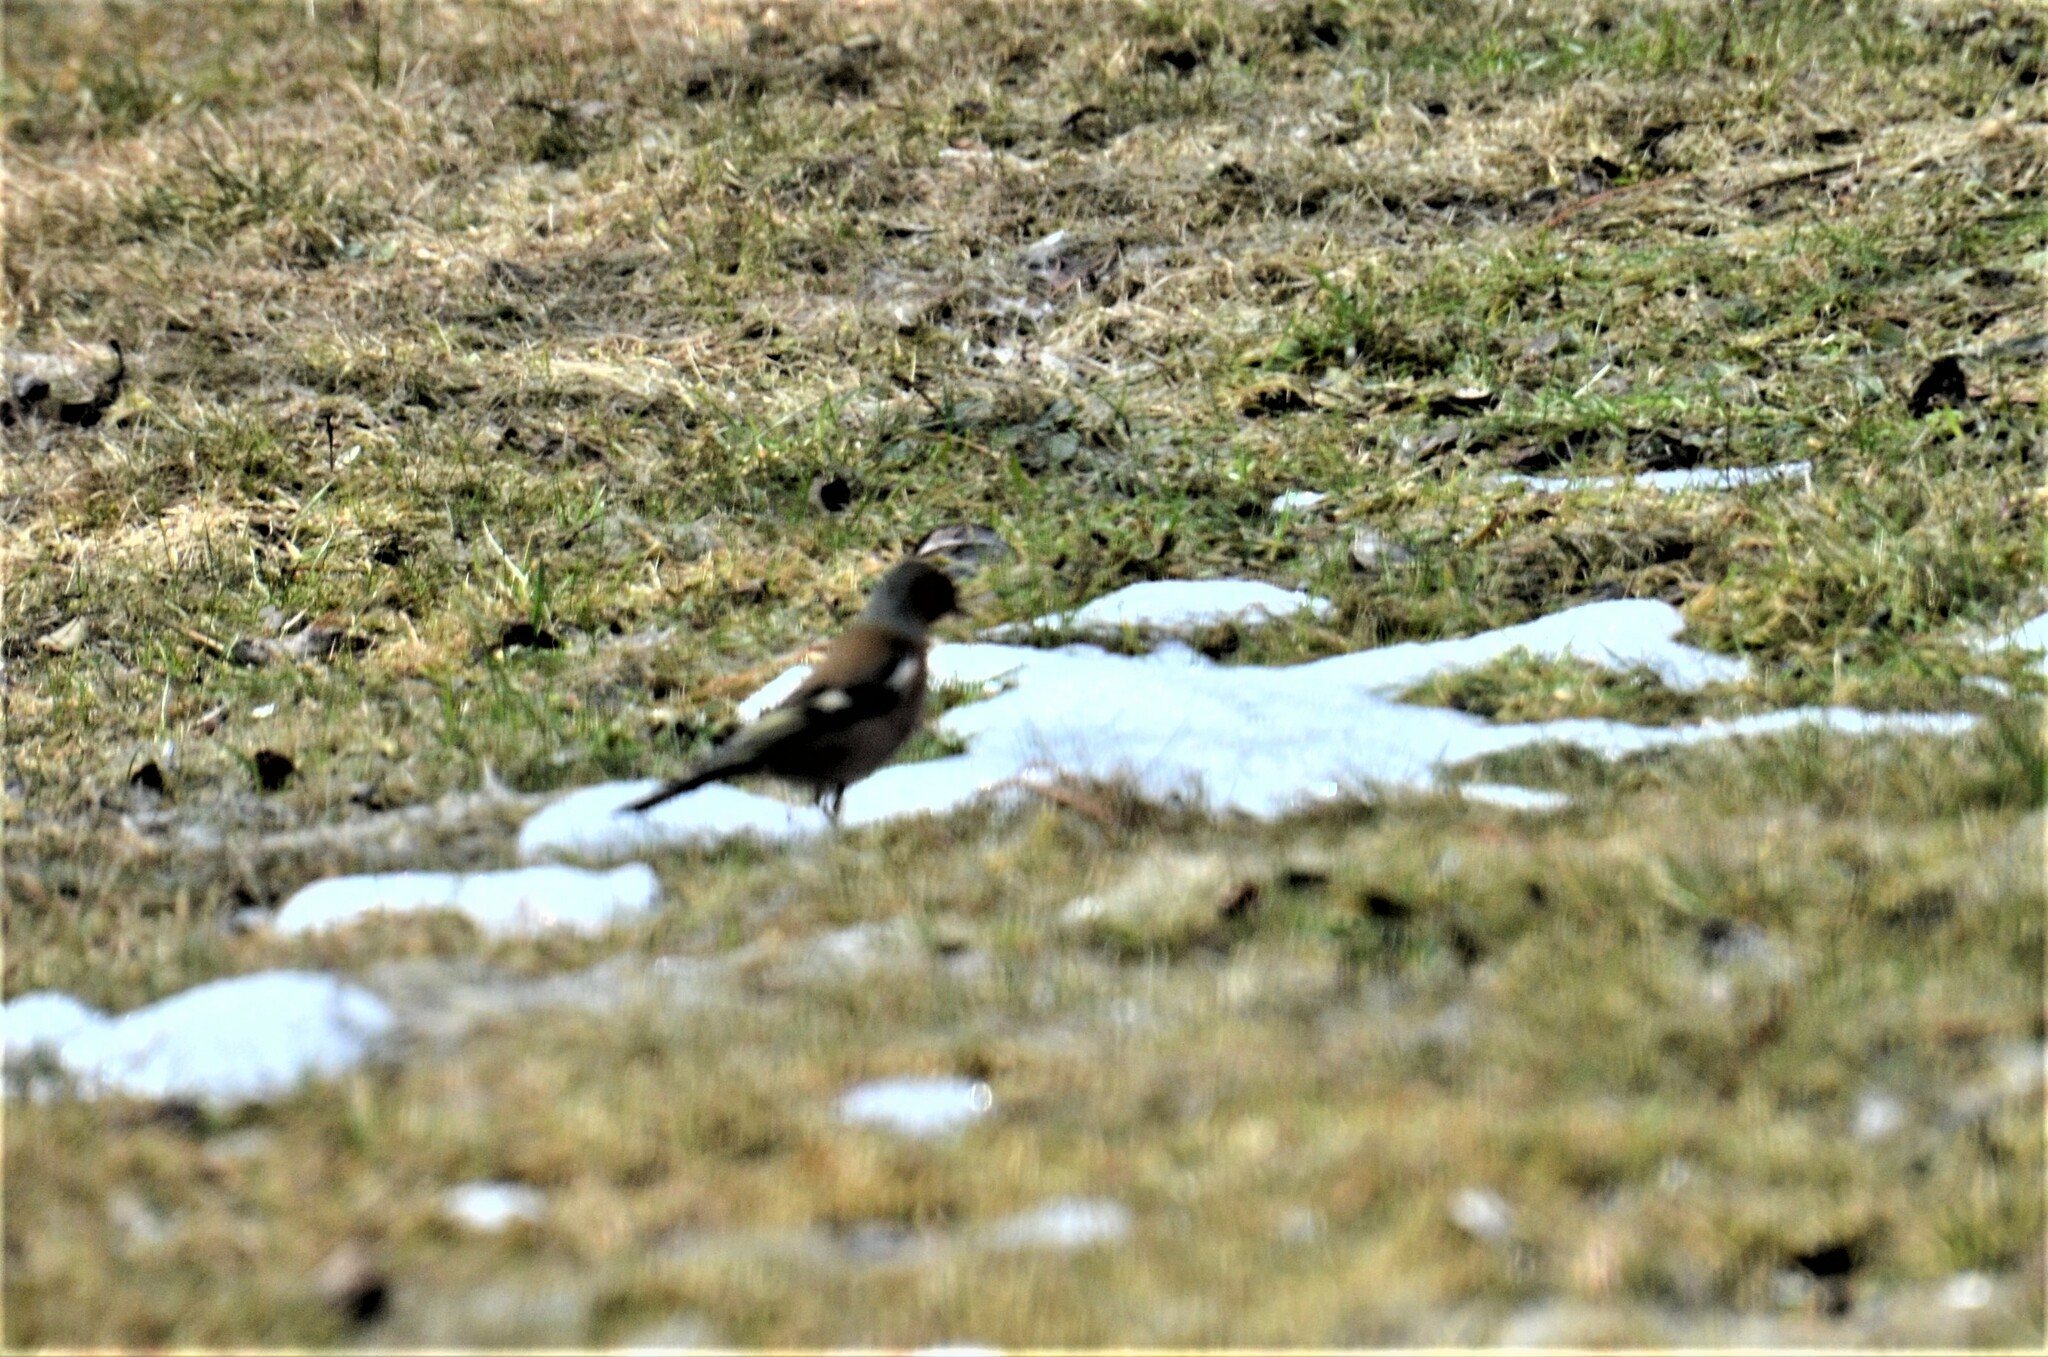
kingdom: Animalia
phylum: Chordata
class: Aves
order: Passeriformes
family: Fringillidae
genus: Fringilla
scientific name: Fringilla coelebs
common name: Common chaffinch
